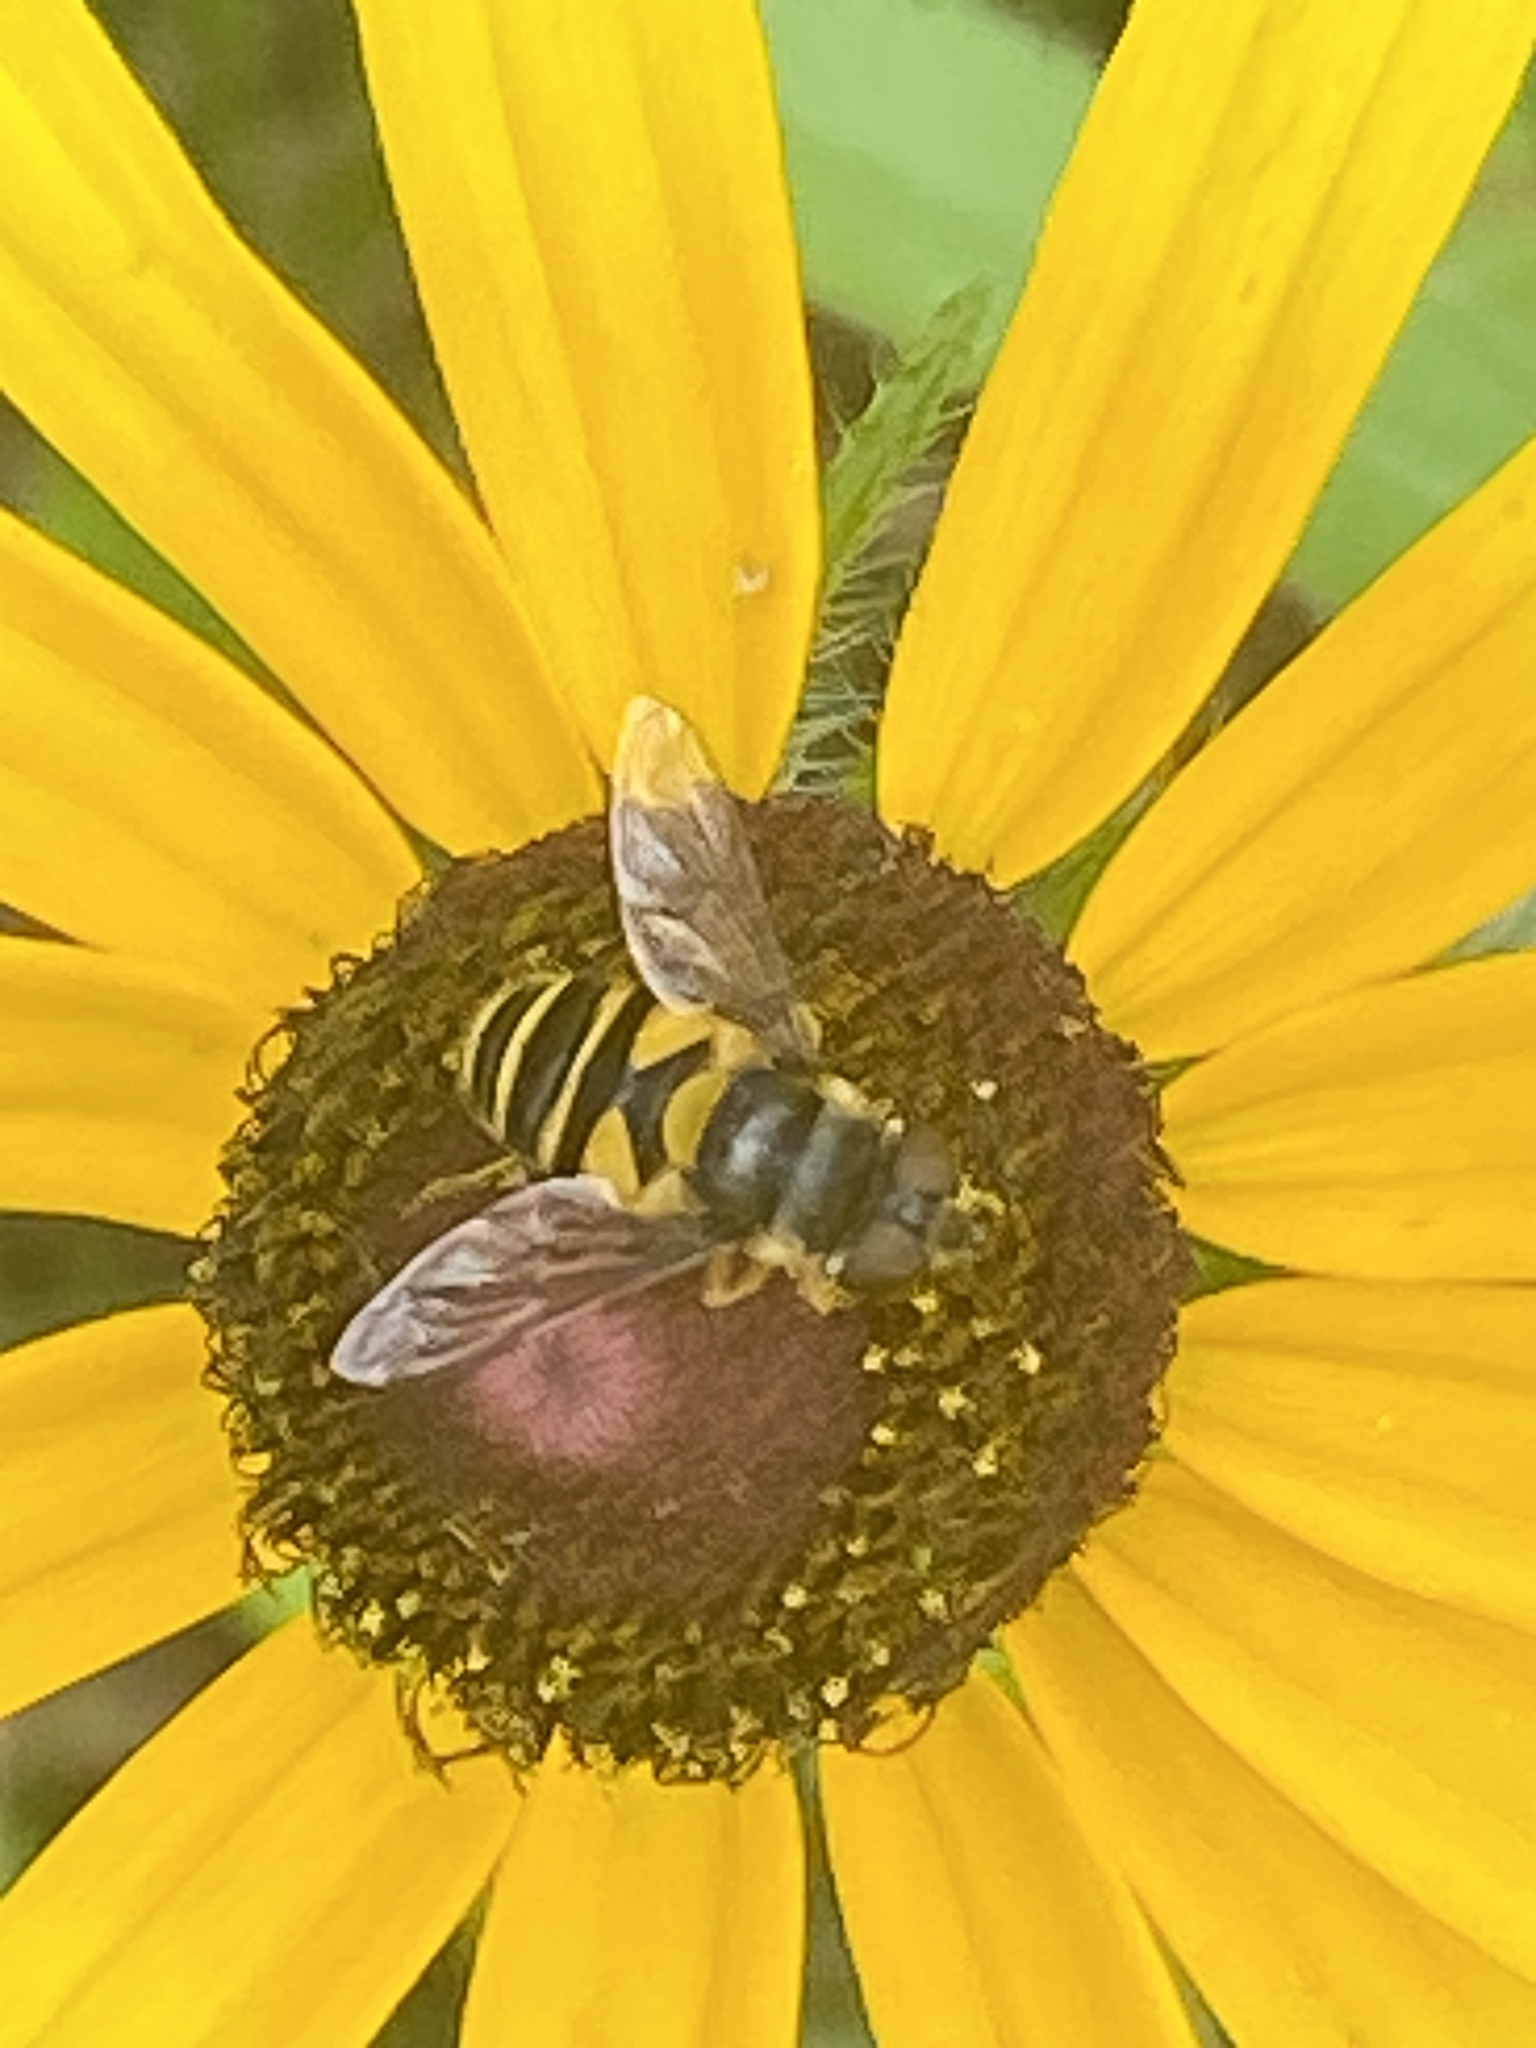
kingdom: Animalia
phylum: Arthropoda
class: Insecta
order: Diptera
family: Syrphidae
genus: Eristalis
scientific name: Eristalis transversa
